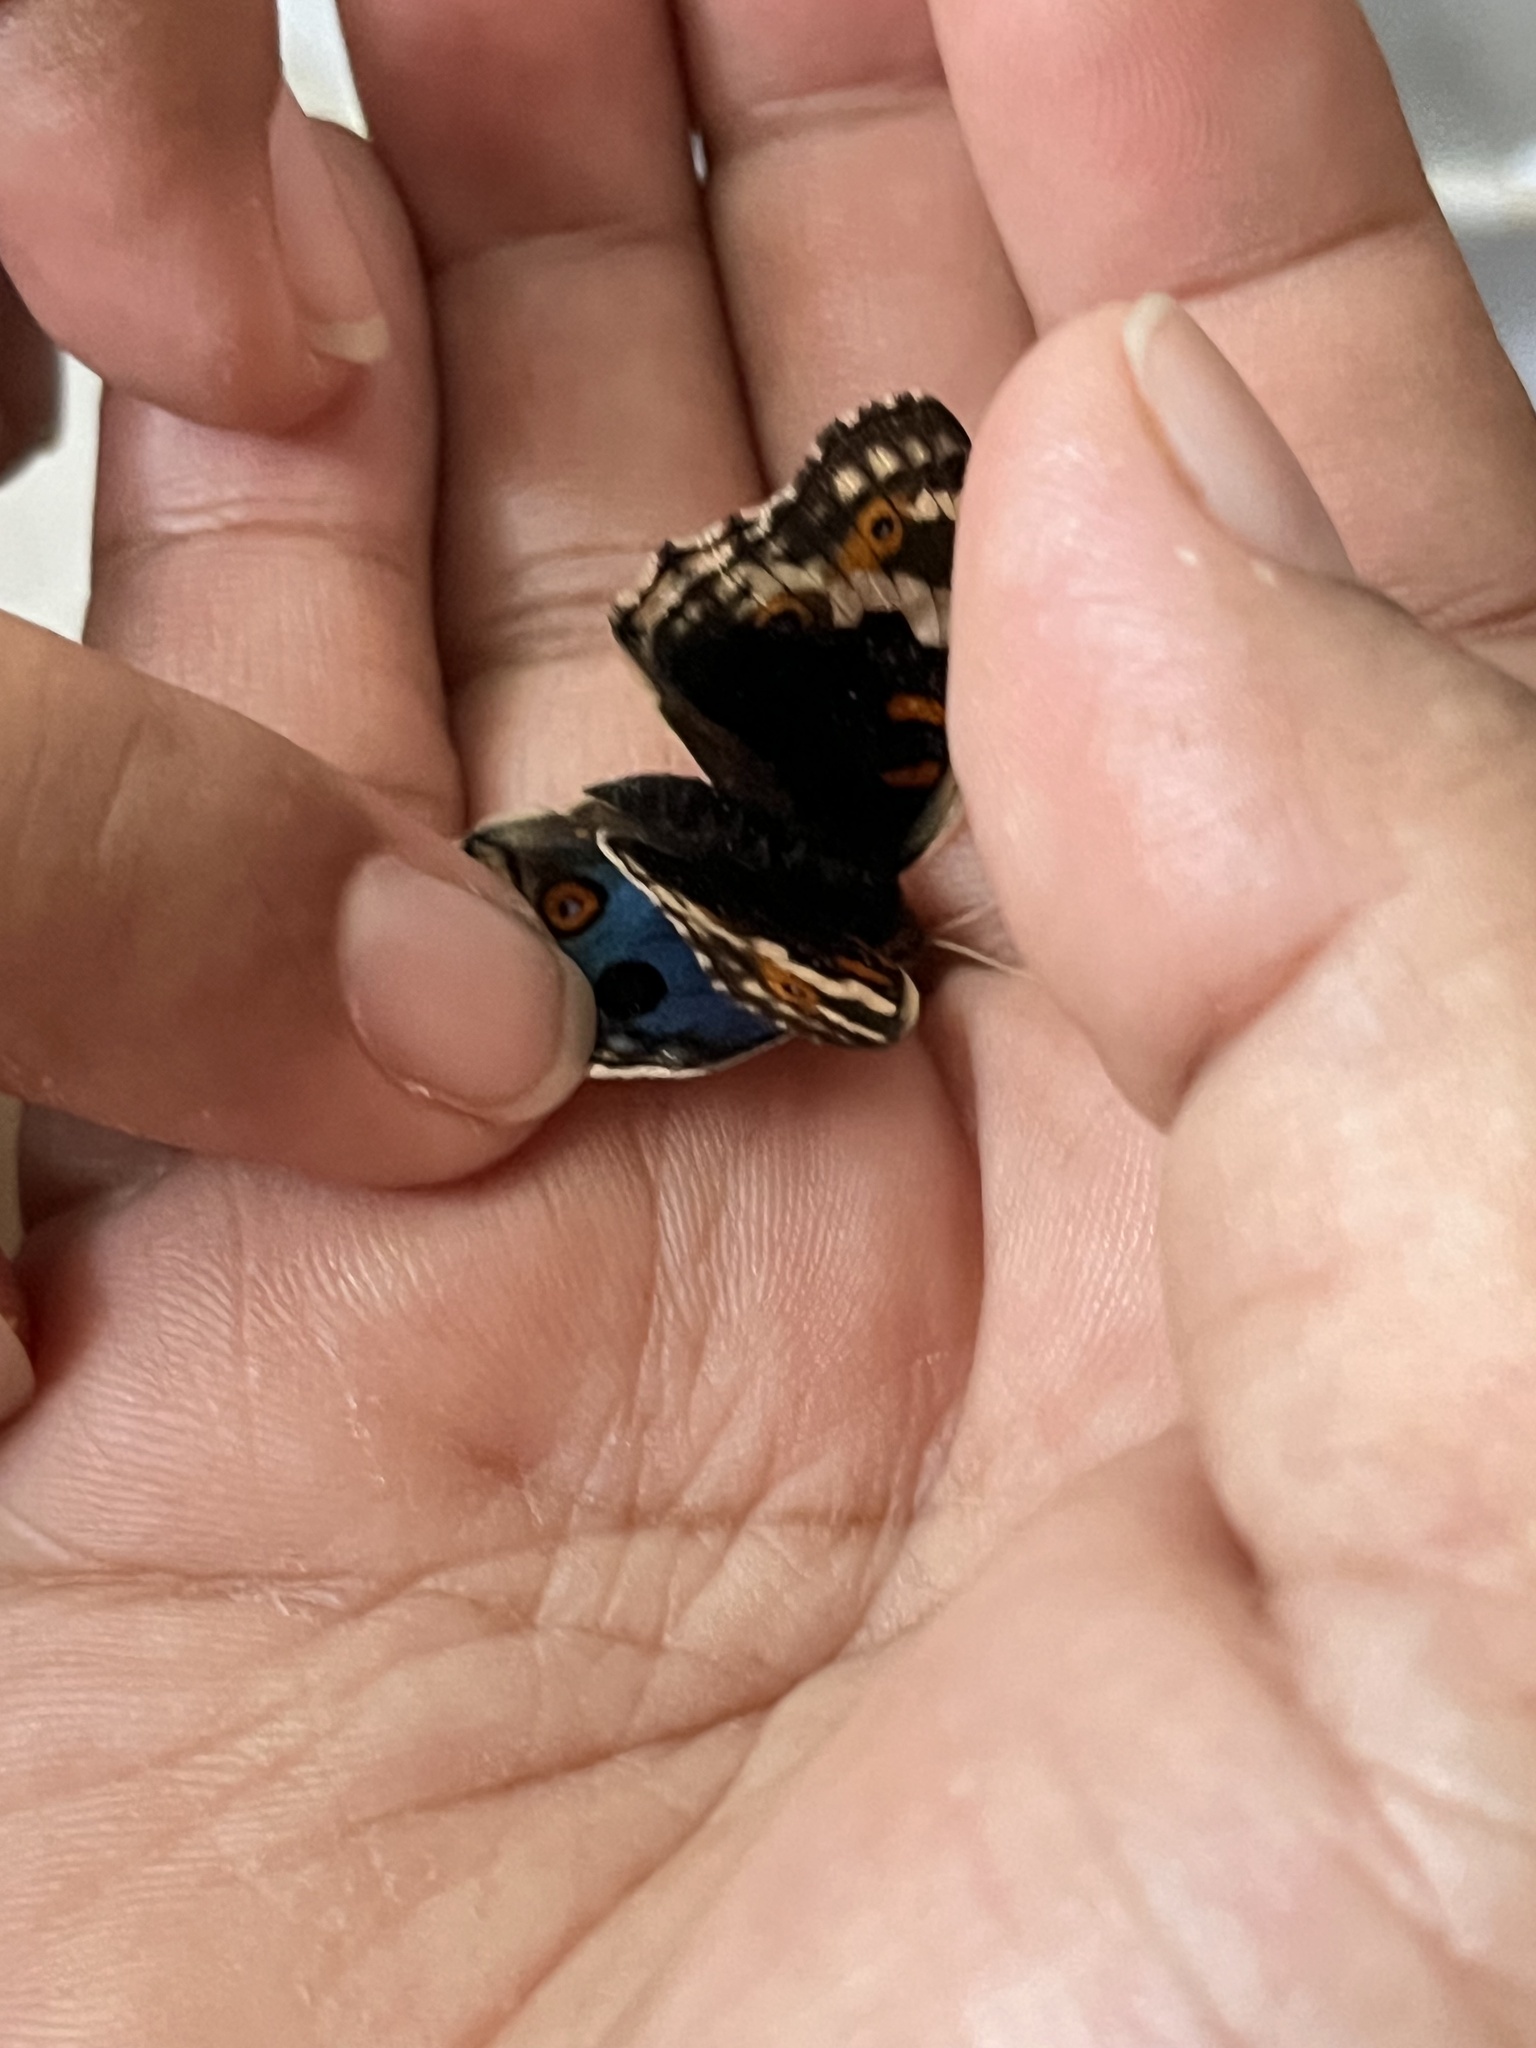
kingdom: Animalia
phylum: Arthropoda
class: Insecta
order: Lepidoptera
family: Nymphalidae
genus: Junonia
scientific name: Junonia orithya
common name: Blue pansy
